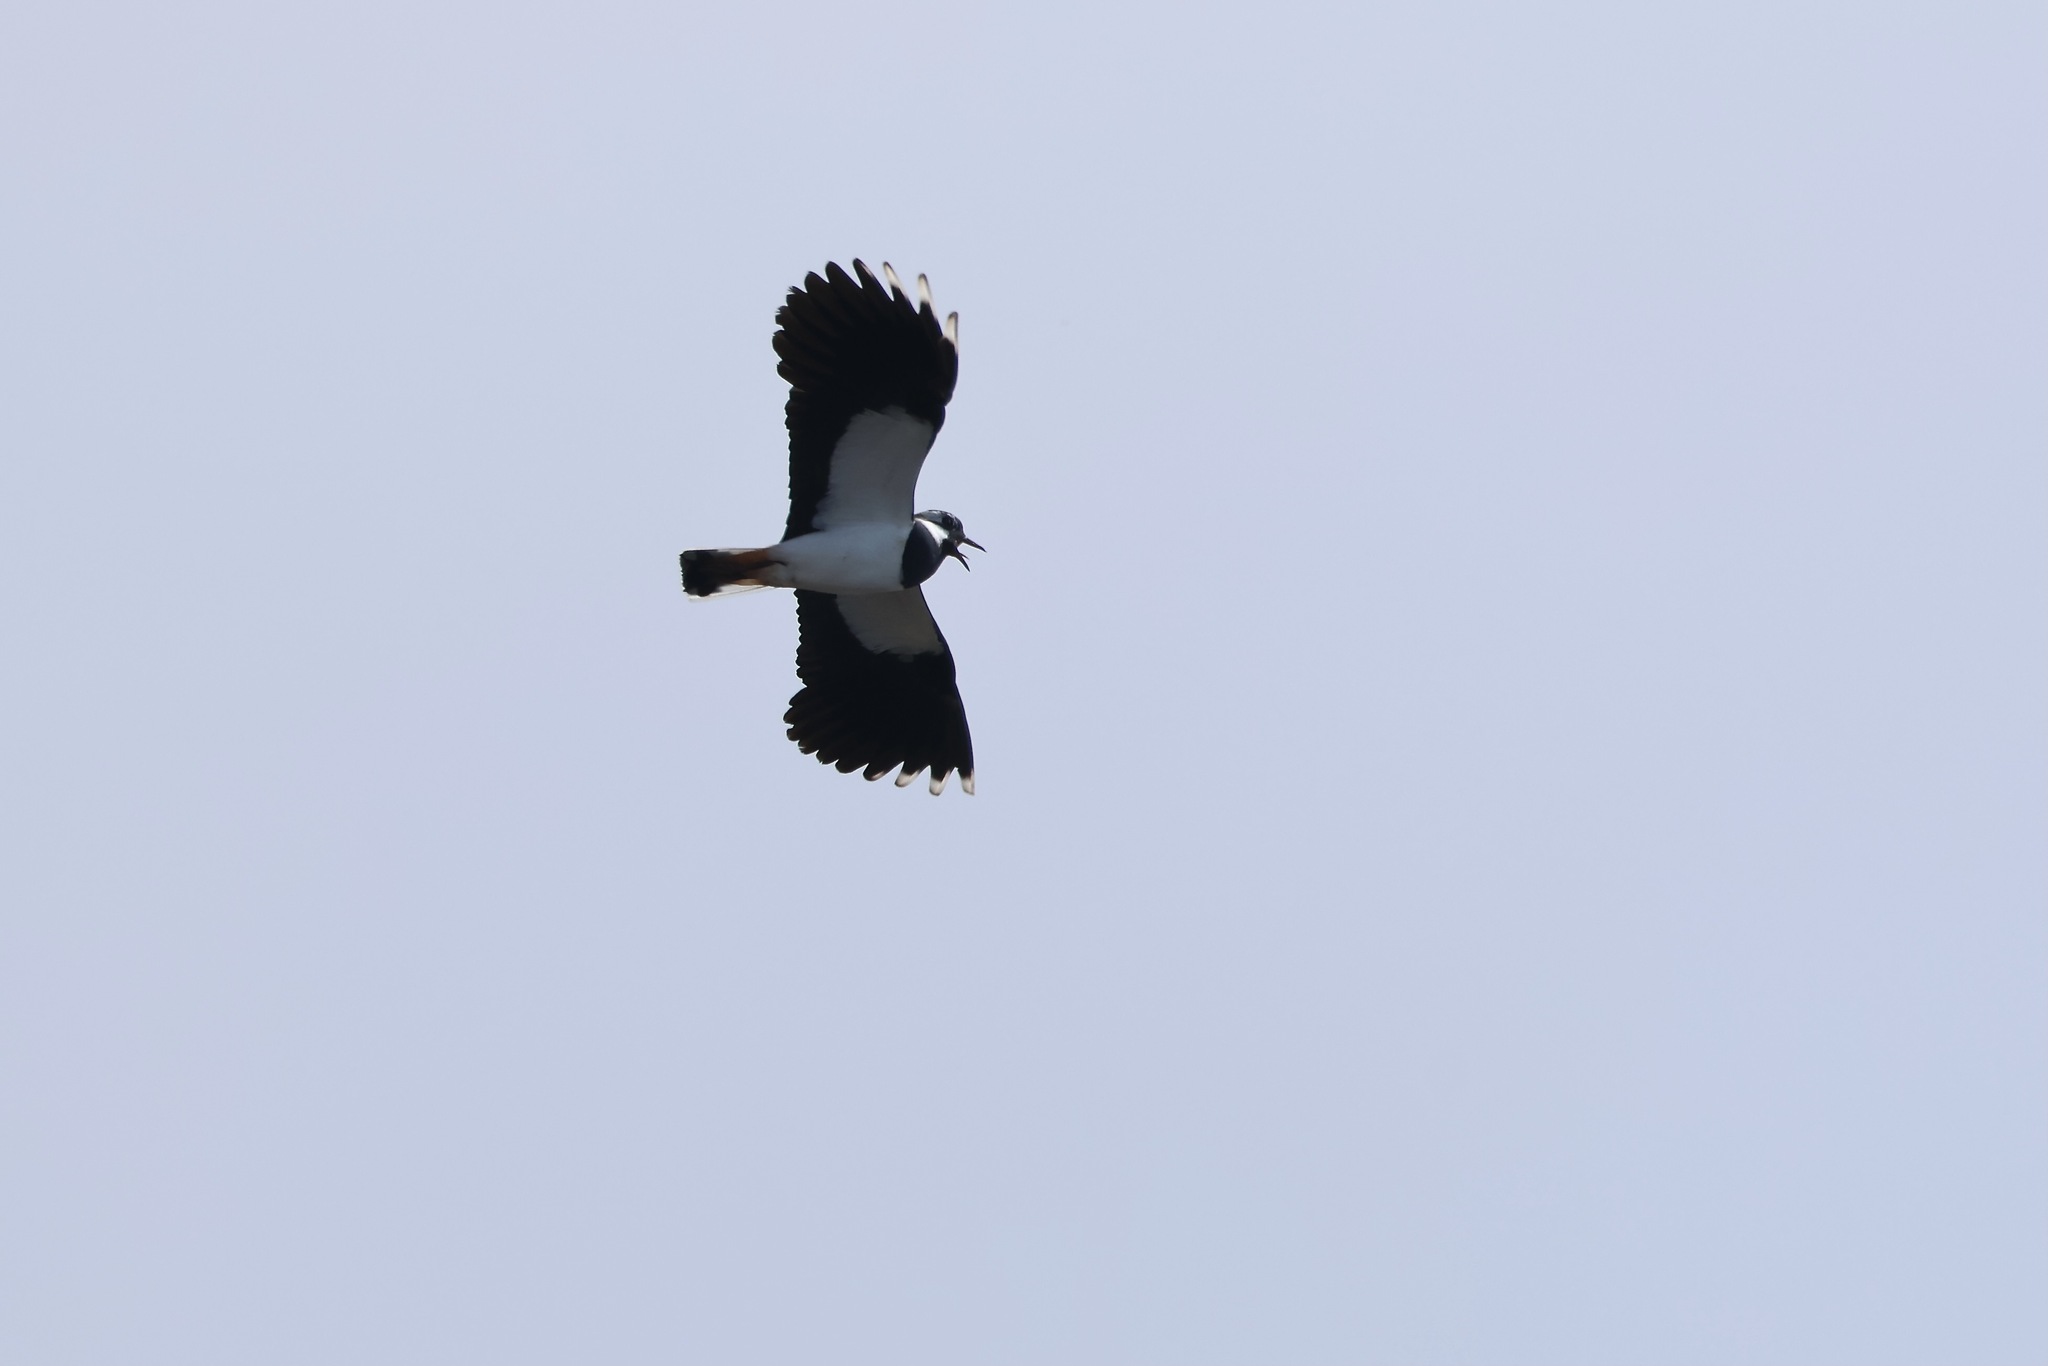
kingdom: Animalia
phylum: Chordata
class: Aves
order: Charadriiformes
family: Charadriidae
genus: Vanellus
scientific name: Vanellus vanellus
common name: Northern lapwing
